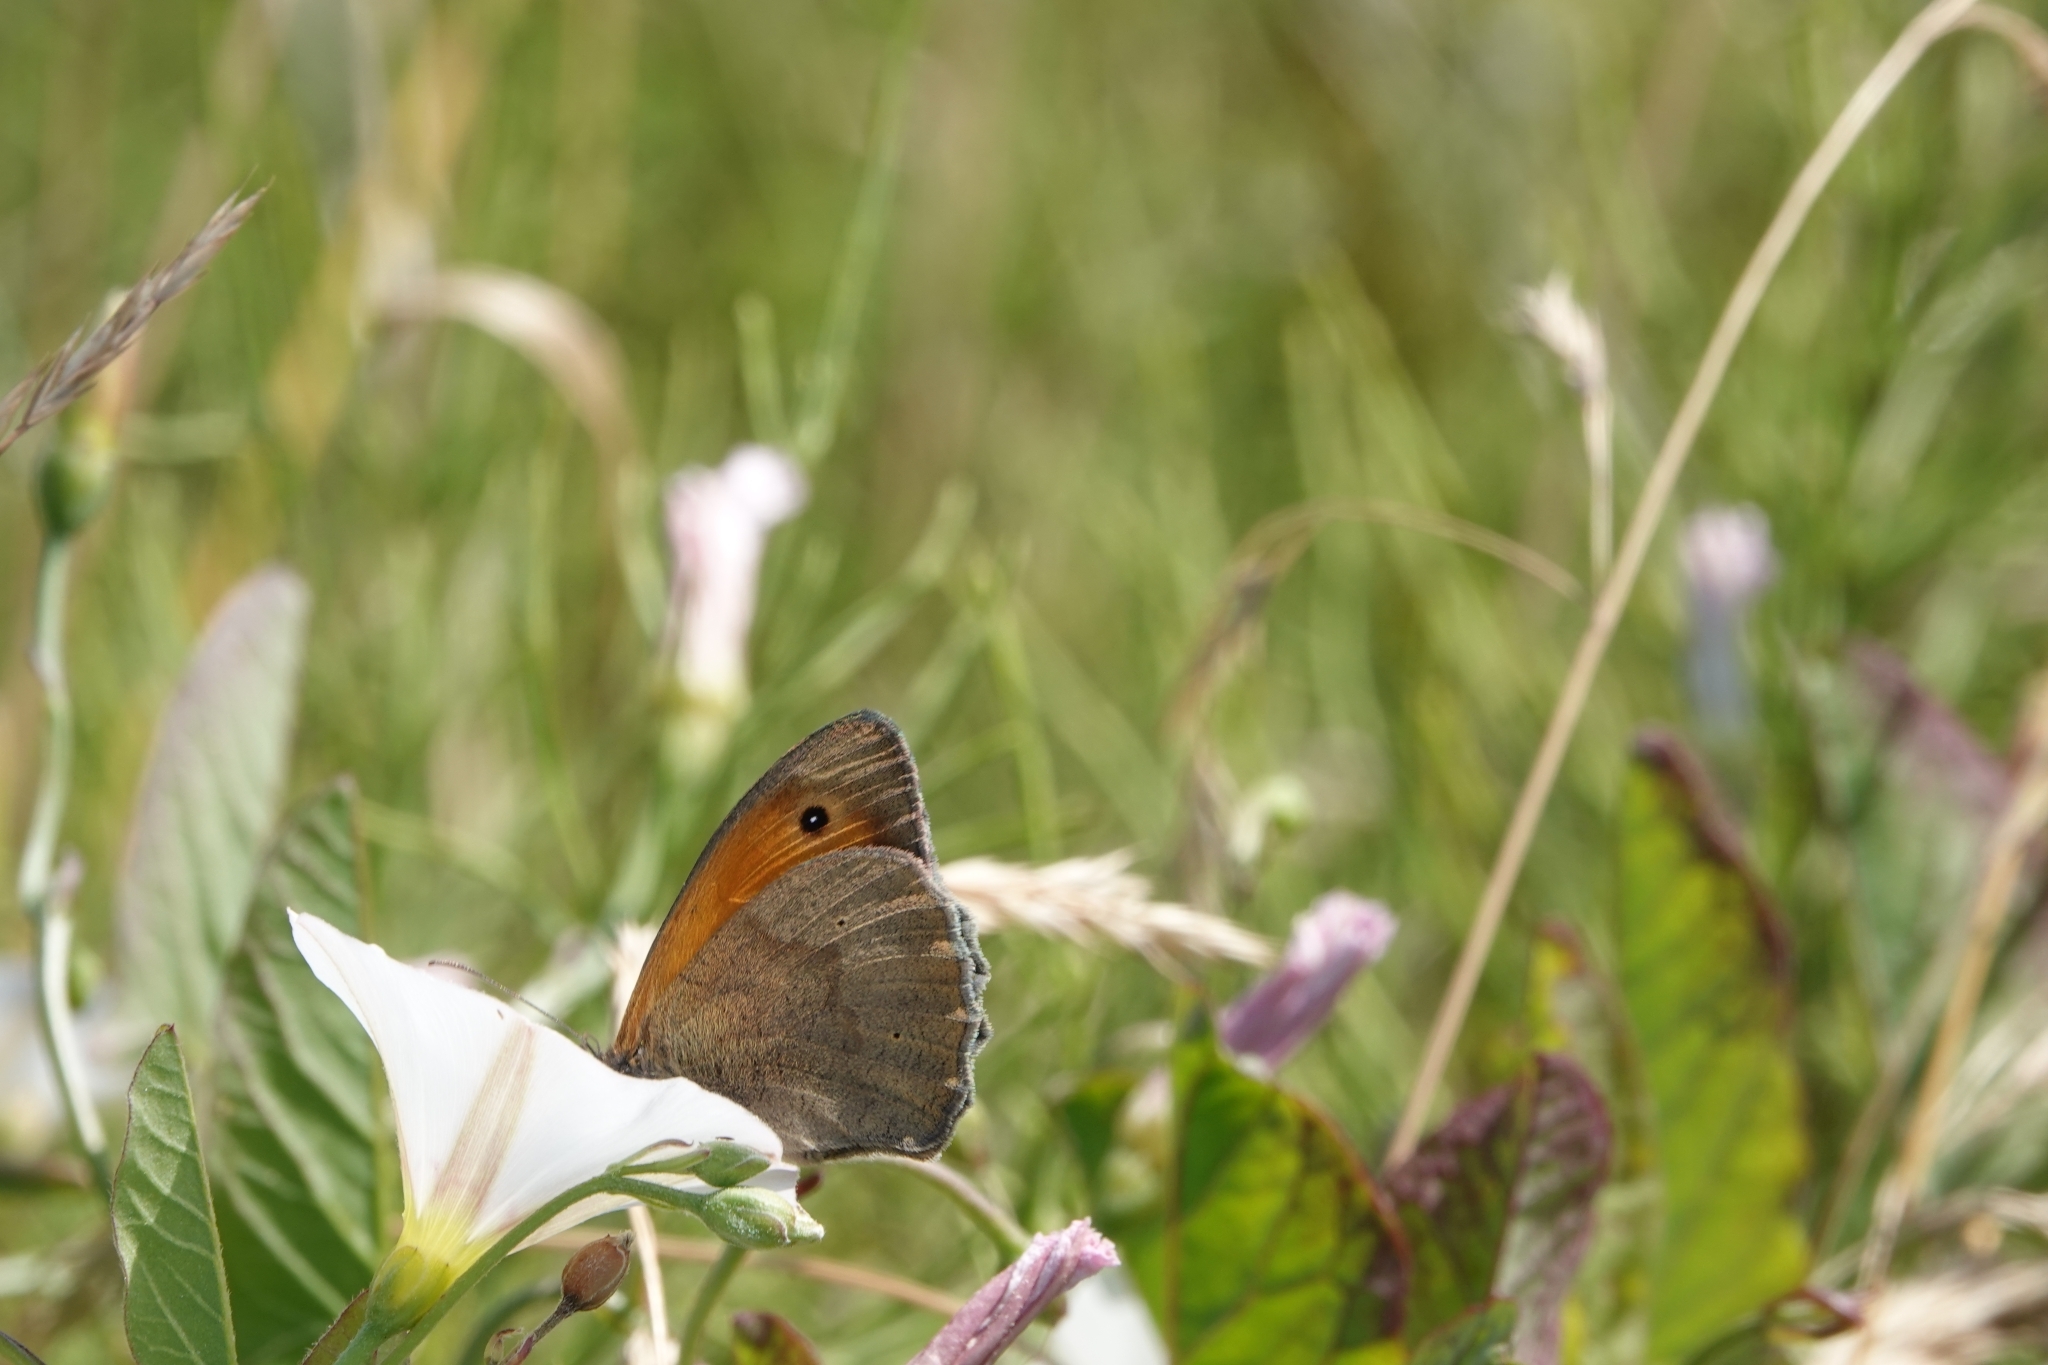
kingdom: Animalia
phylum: Arthropoda
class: Insecta
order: Lepidoptera
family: Nymphalidae
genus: Maniola
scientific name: Maniola jurtina
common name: Meadow brown
